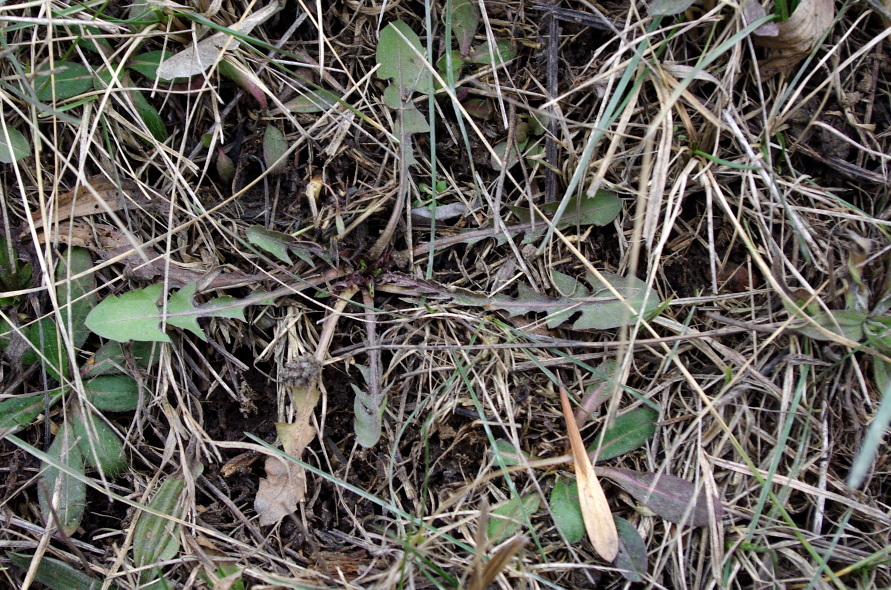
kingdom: Plantae
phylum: Tracheophyta
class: Magnoliopsida
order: Asterales
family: Asteraceae
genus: Taraxacum
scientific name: Taraxacum officinale
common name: Common dandelion
